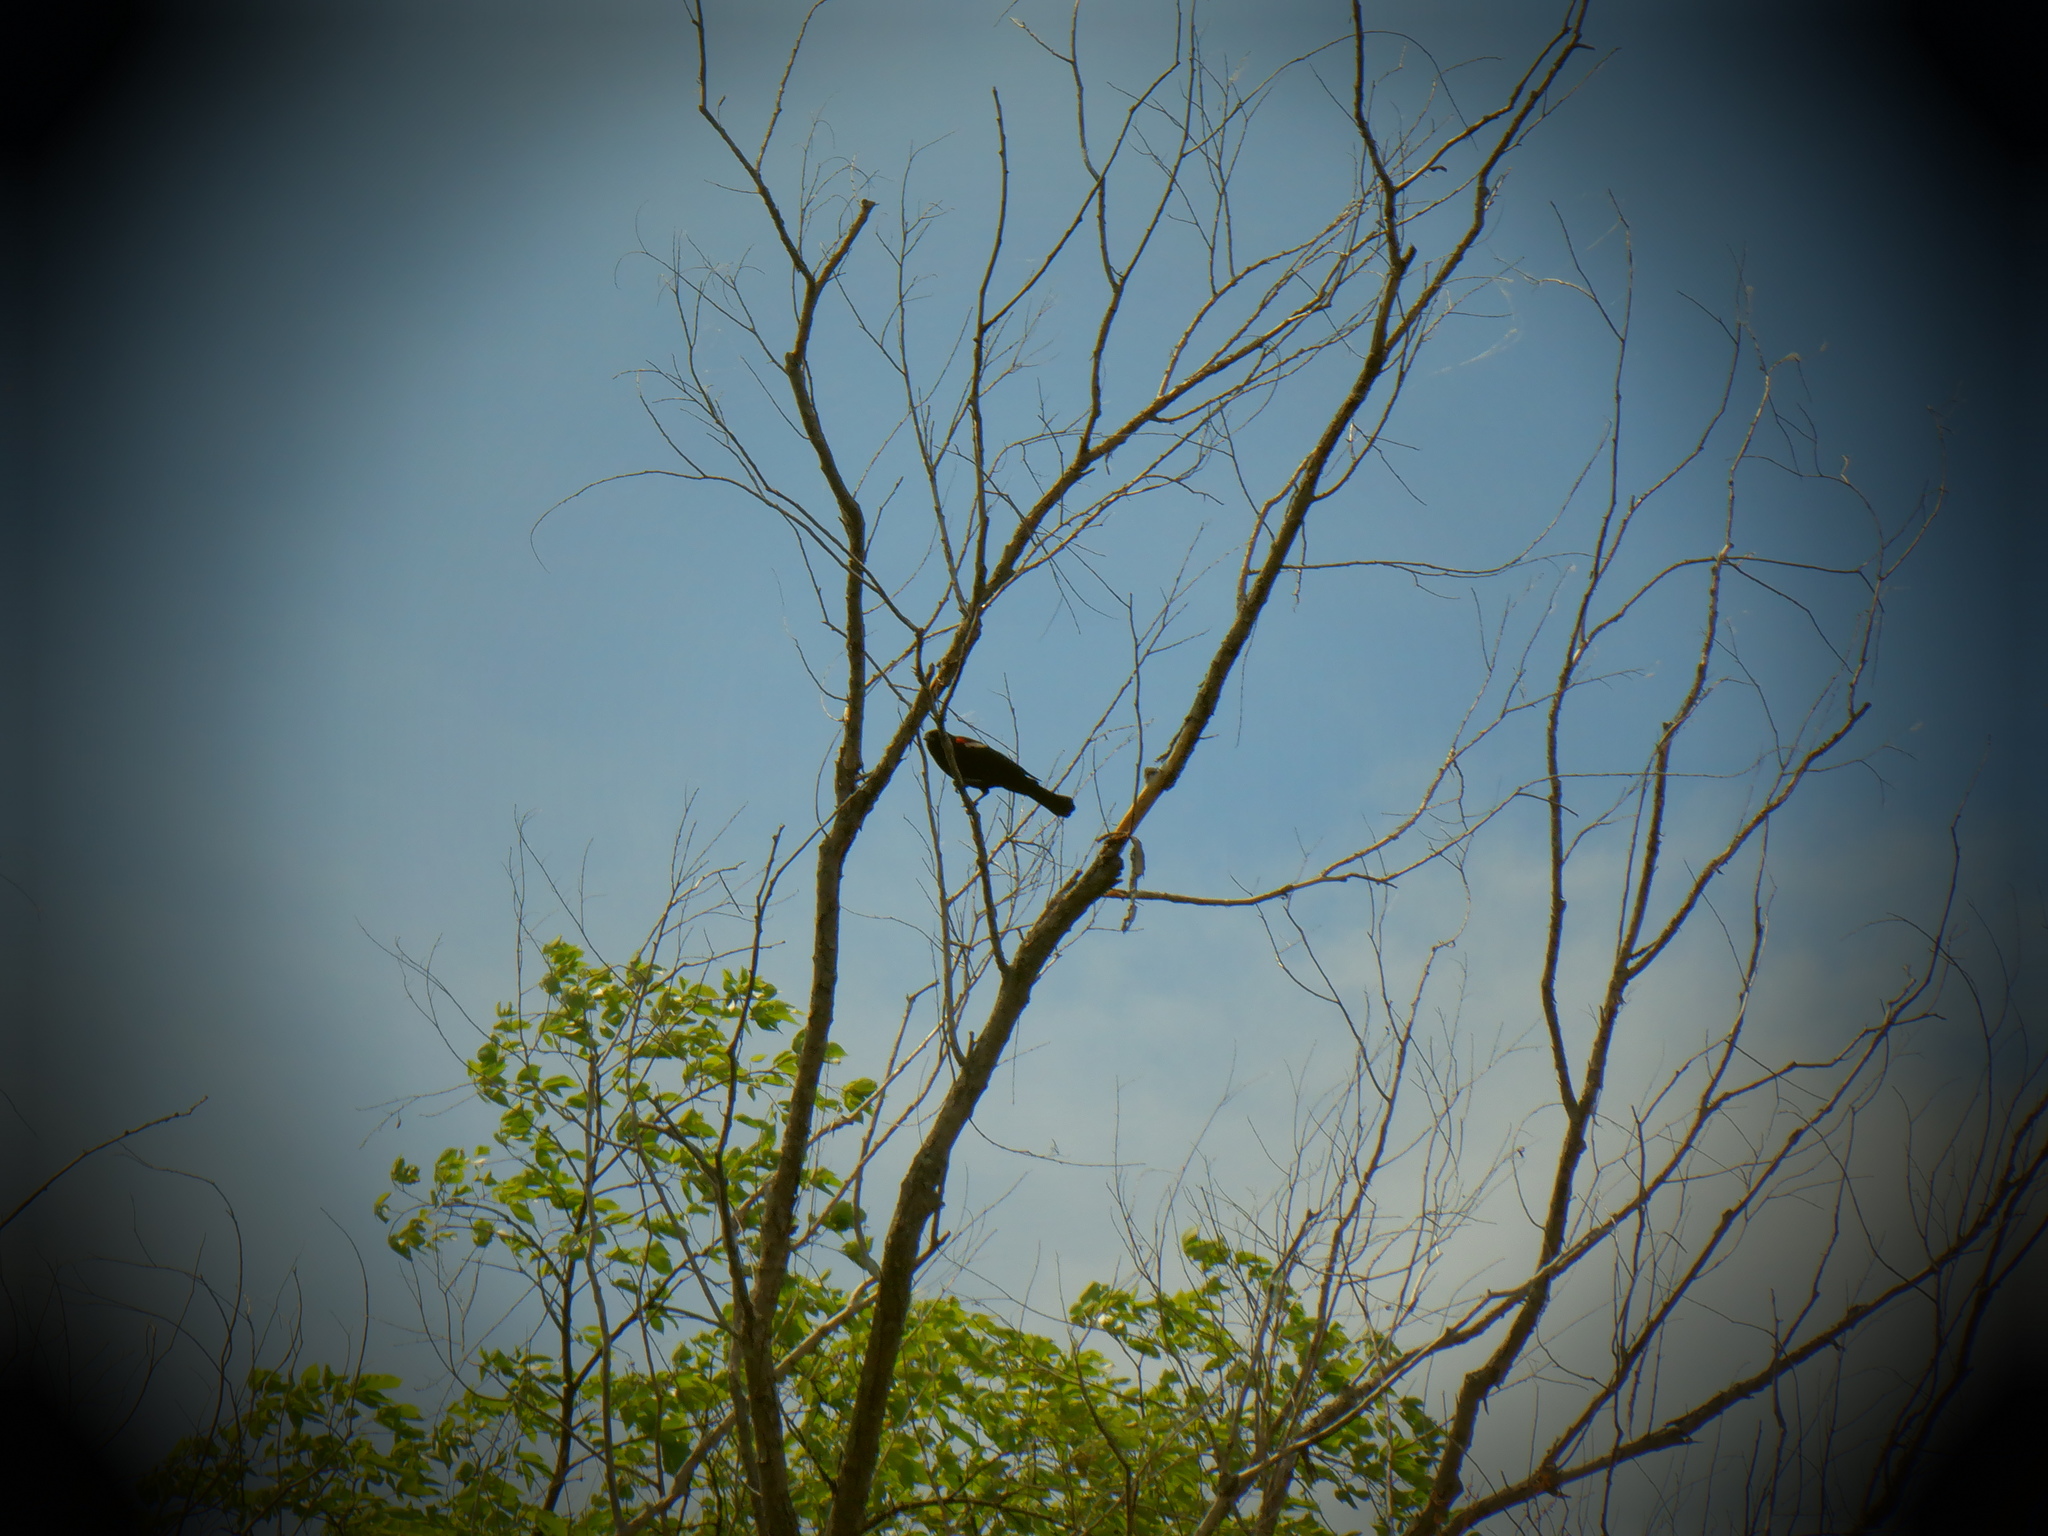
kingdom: Animalia
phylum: Chordata
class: Aves
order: Passeriformes
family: Icteridae
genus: Agelaius
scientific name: Agelaius phoeniceus
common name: Red-winged blackbird
